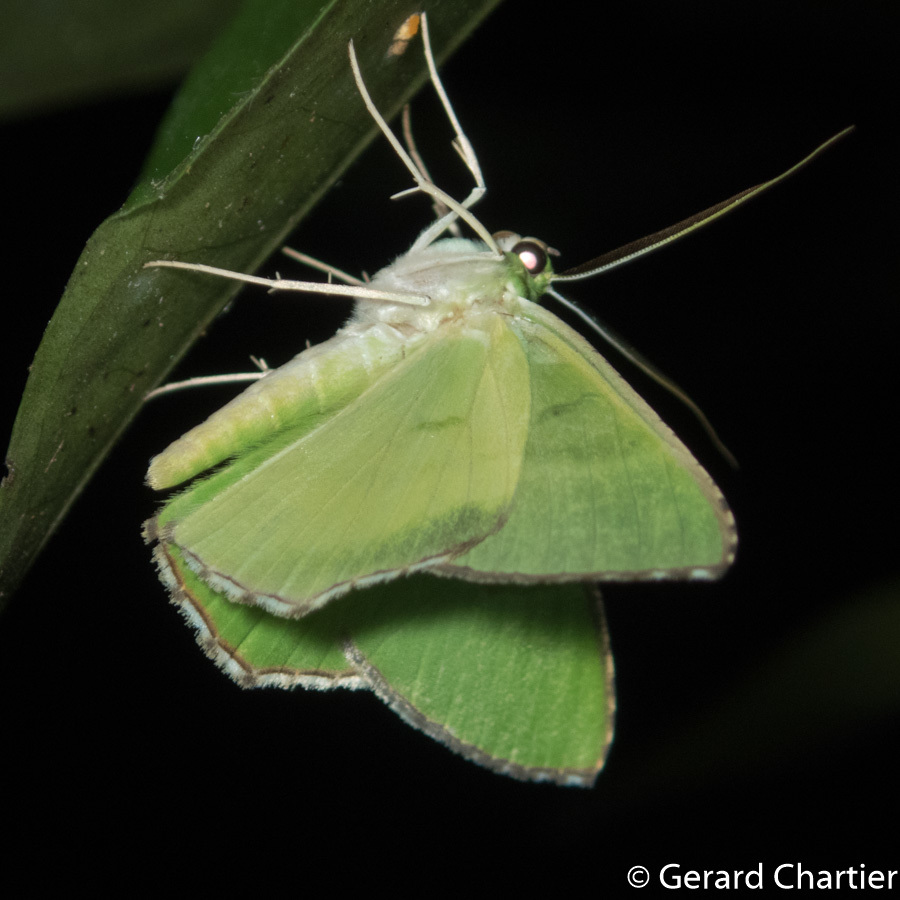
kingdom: Animalia
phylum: Arthropoda
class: Insecta
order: Lepidoptera
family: Geometridae
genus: Ornithospila
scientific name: Ornithospila succincta
